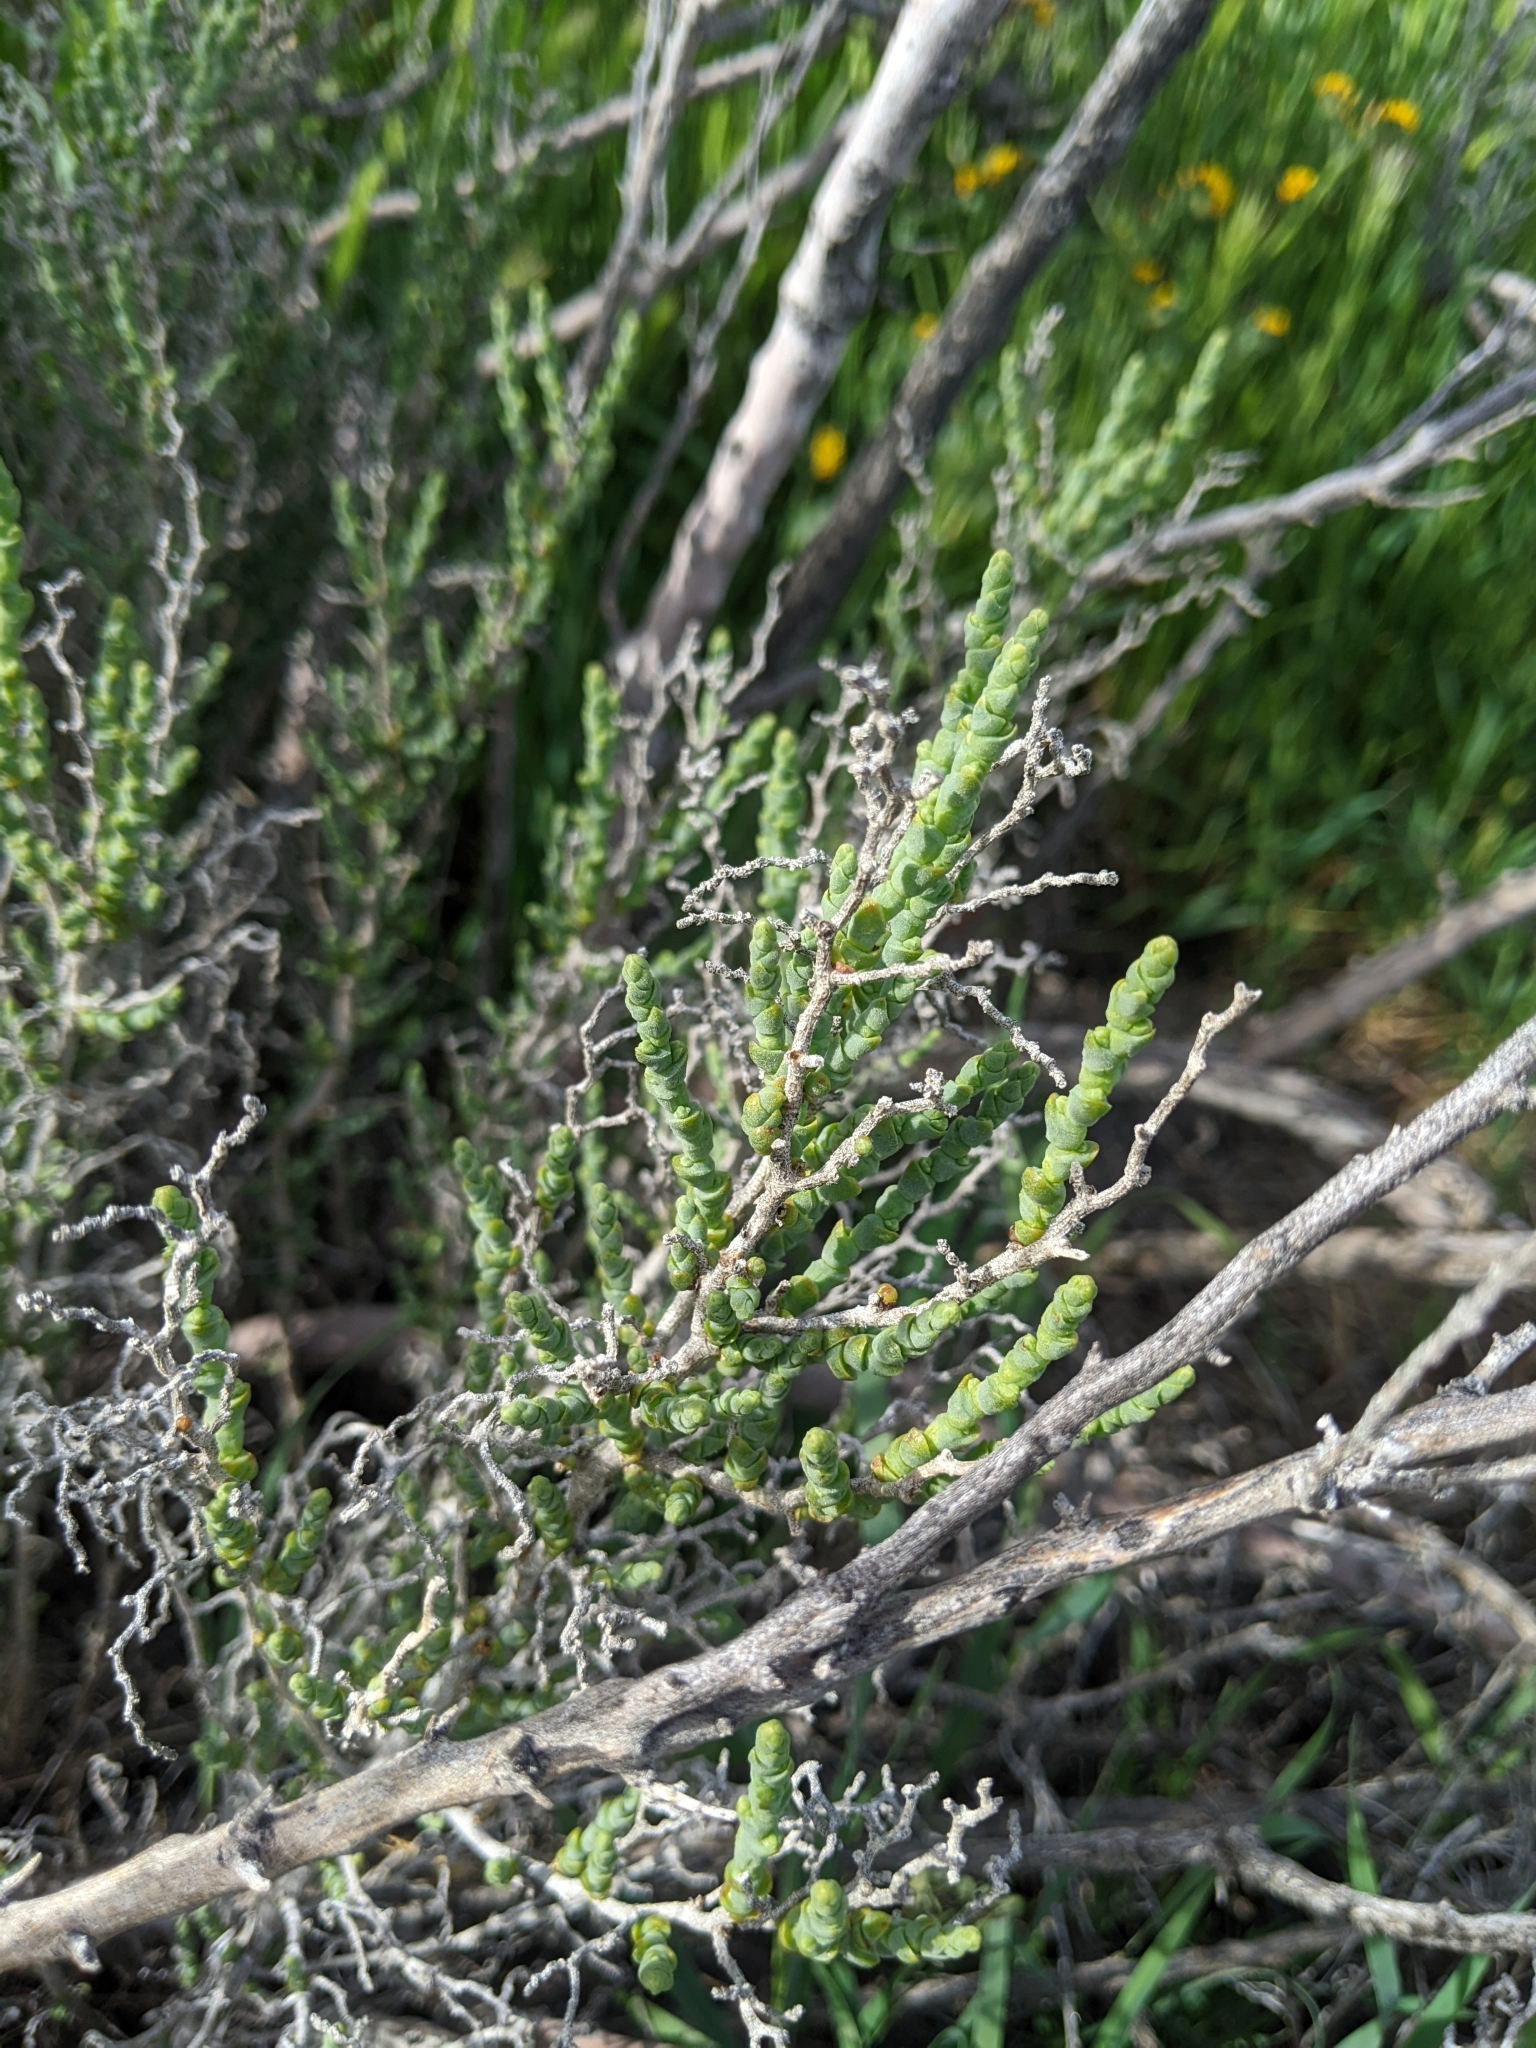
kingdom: Plantae
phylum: Tracheophyta
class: Magnoliopsida
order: Caryophyllales
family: Amaranthaceae
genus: Allenrolfea
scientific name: Allenrolfea occidentalis
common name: Iodine-bush
